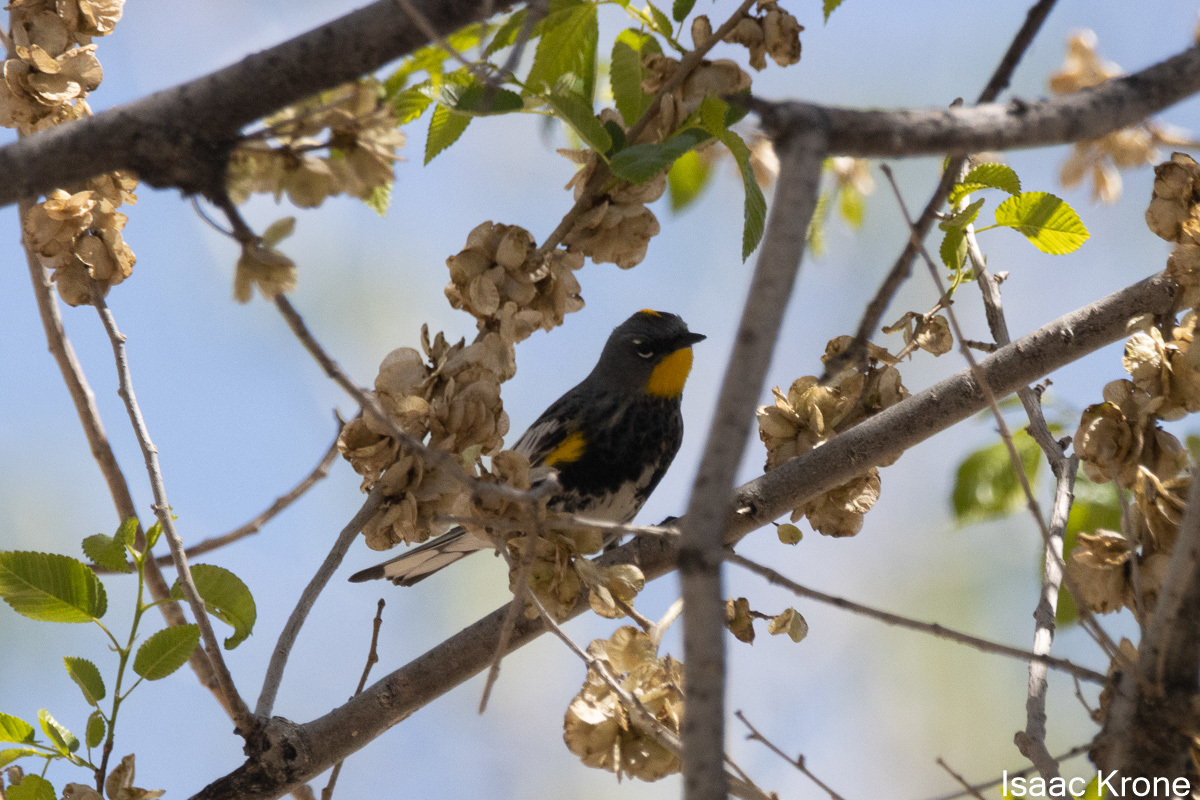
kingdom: Animalia
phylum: Chordata
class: Aves
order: Passeriformes
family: Parulidae
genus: Setophaga
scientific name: Setophaga coronata
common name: Myrtle warbler
